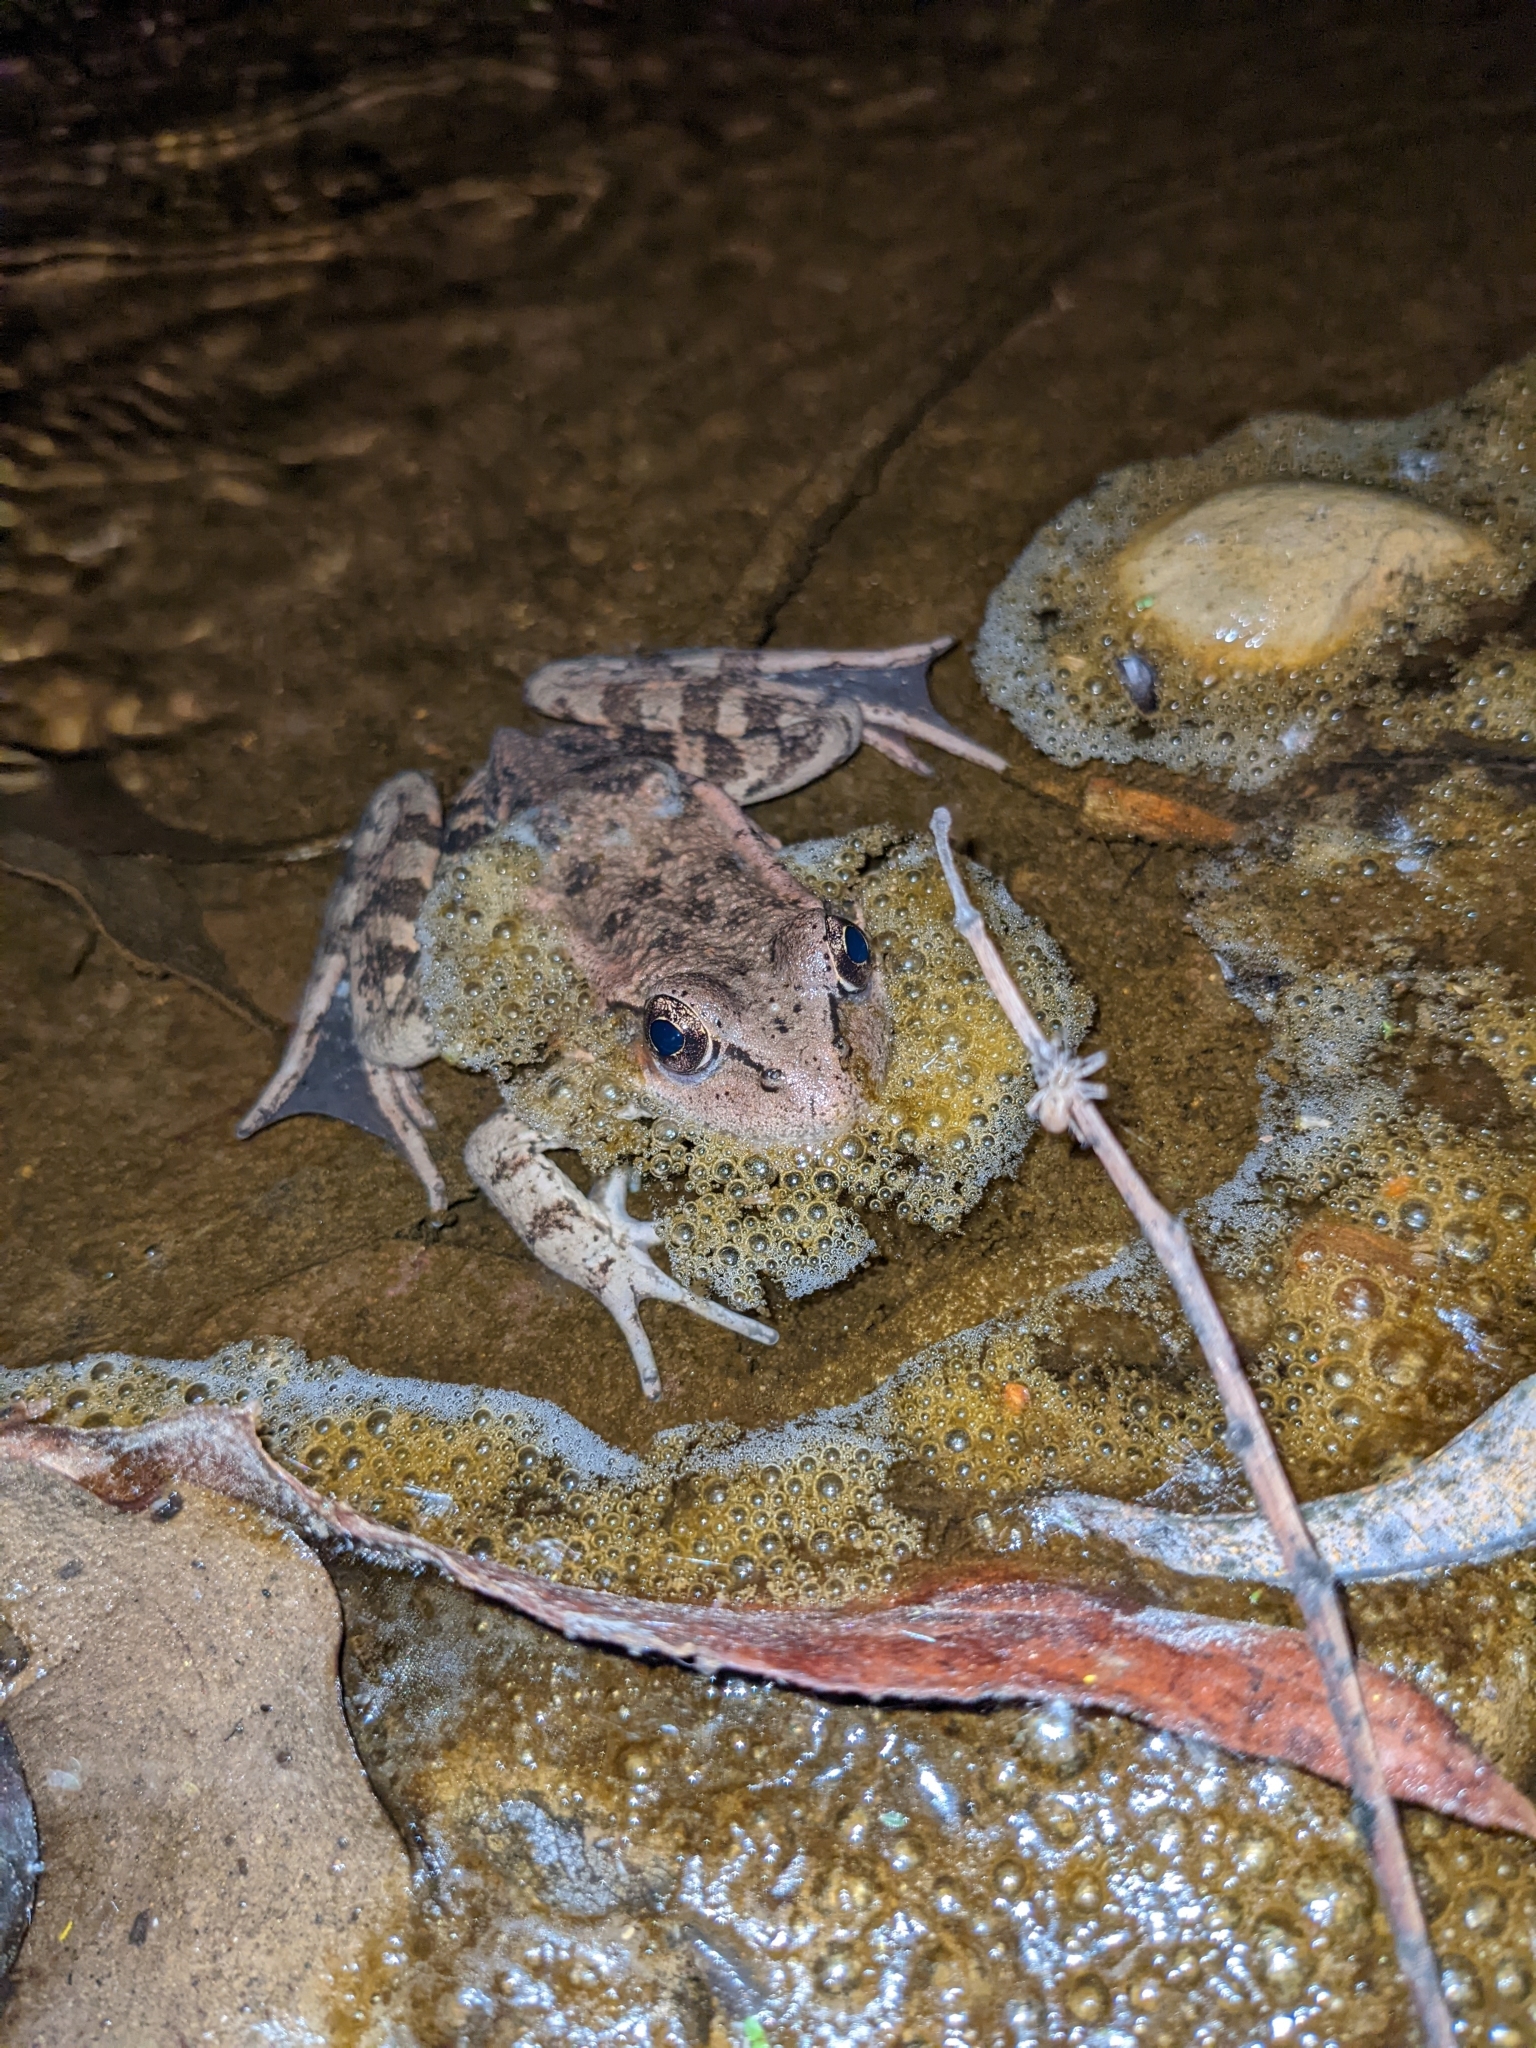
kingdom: Animalia
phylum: Chordata
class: Amphibia
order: Anura
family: Ranidae
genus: Rana
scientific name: Rana draytonii
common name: California red-legged frog
